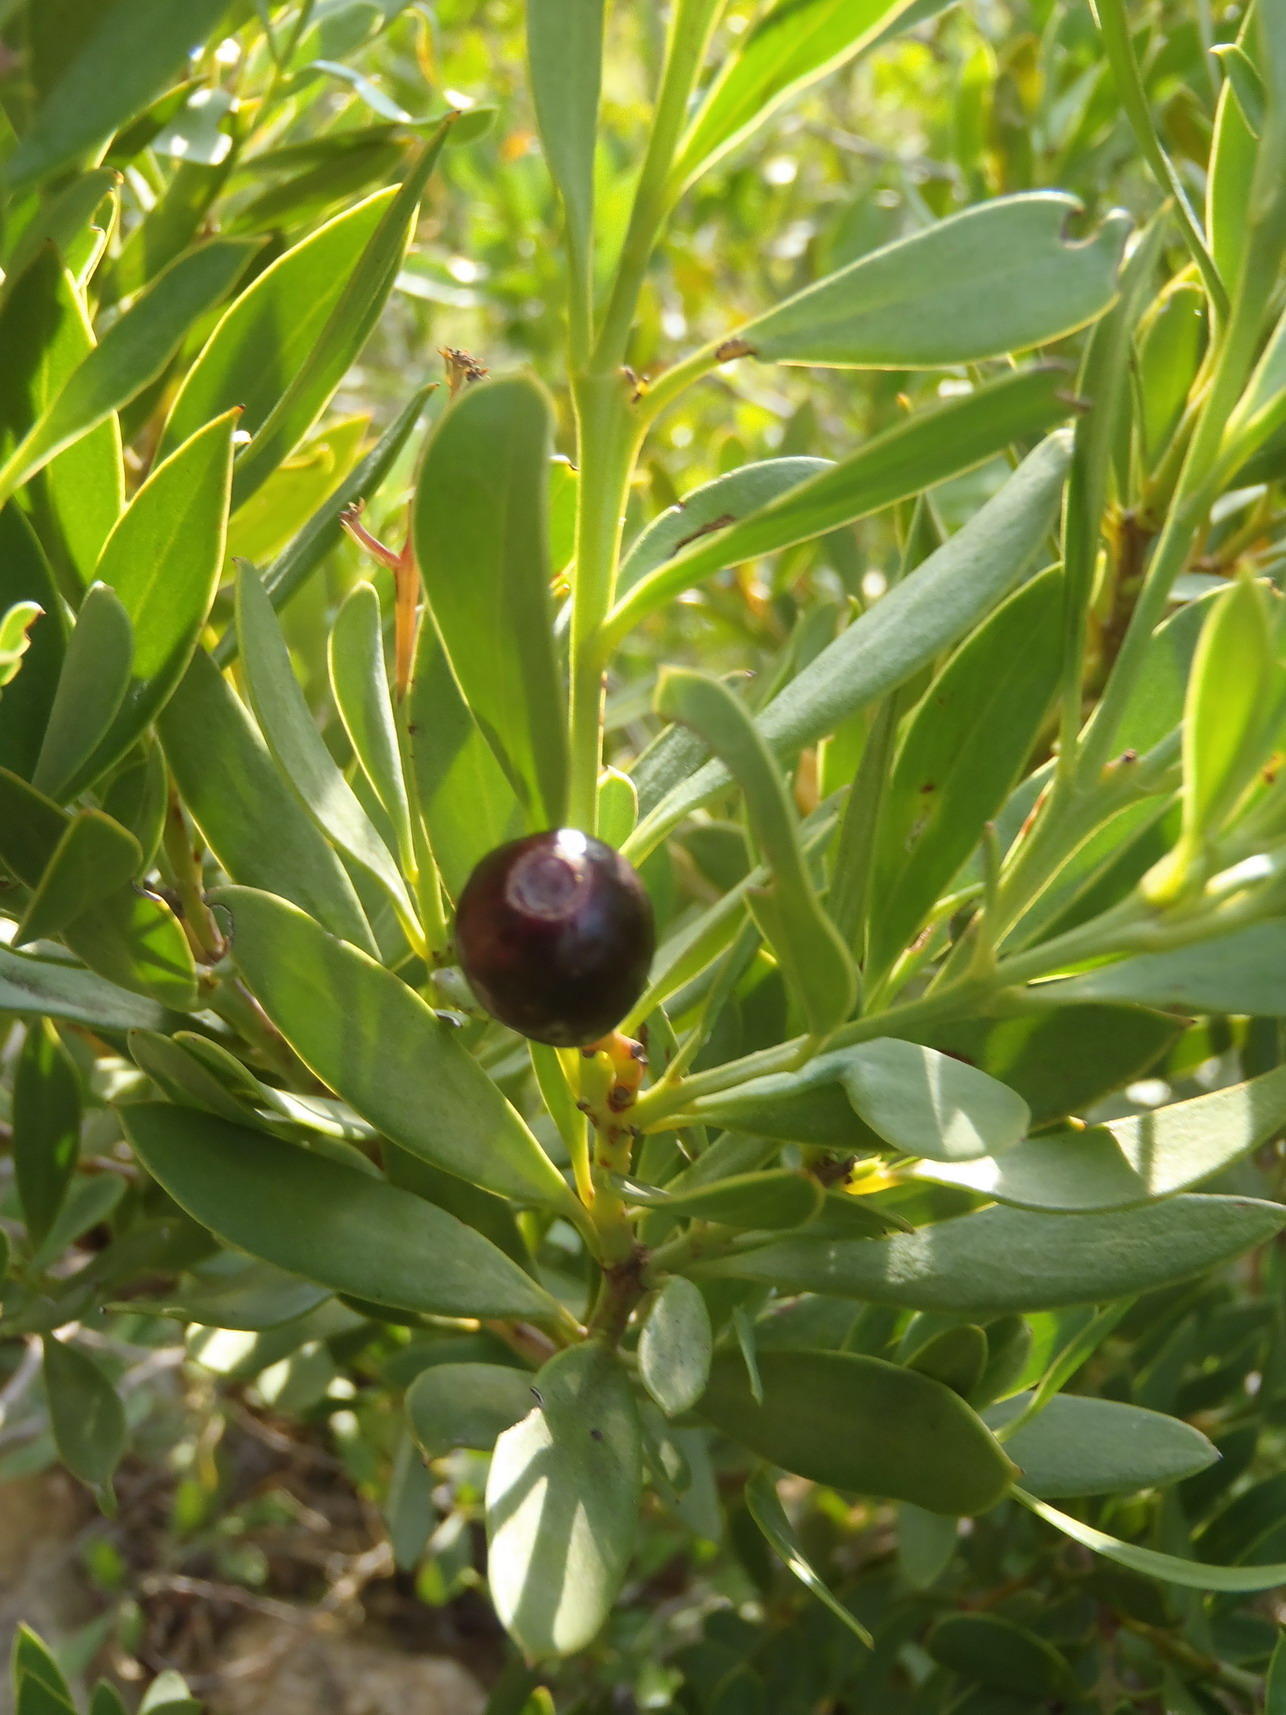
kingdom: Plantae
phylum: Tracheophyta
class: Magnoliopsida
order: Santalales
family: Santalaceae
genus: Osyris
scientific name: Osyris compressa
